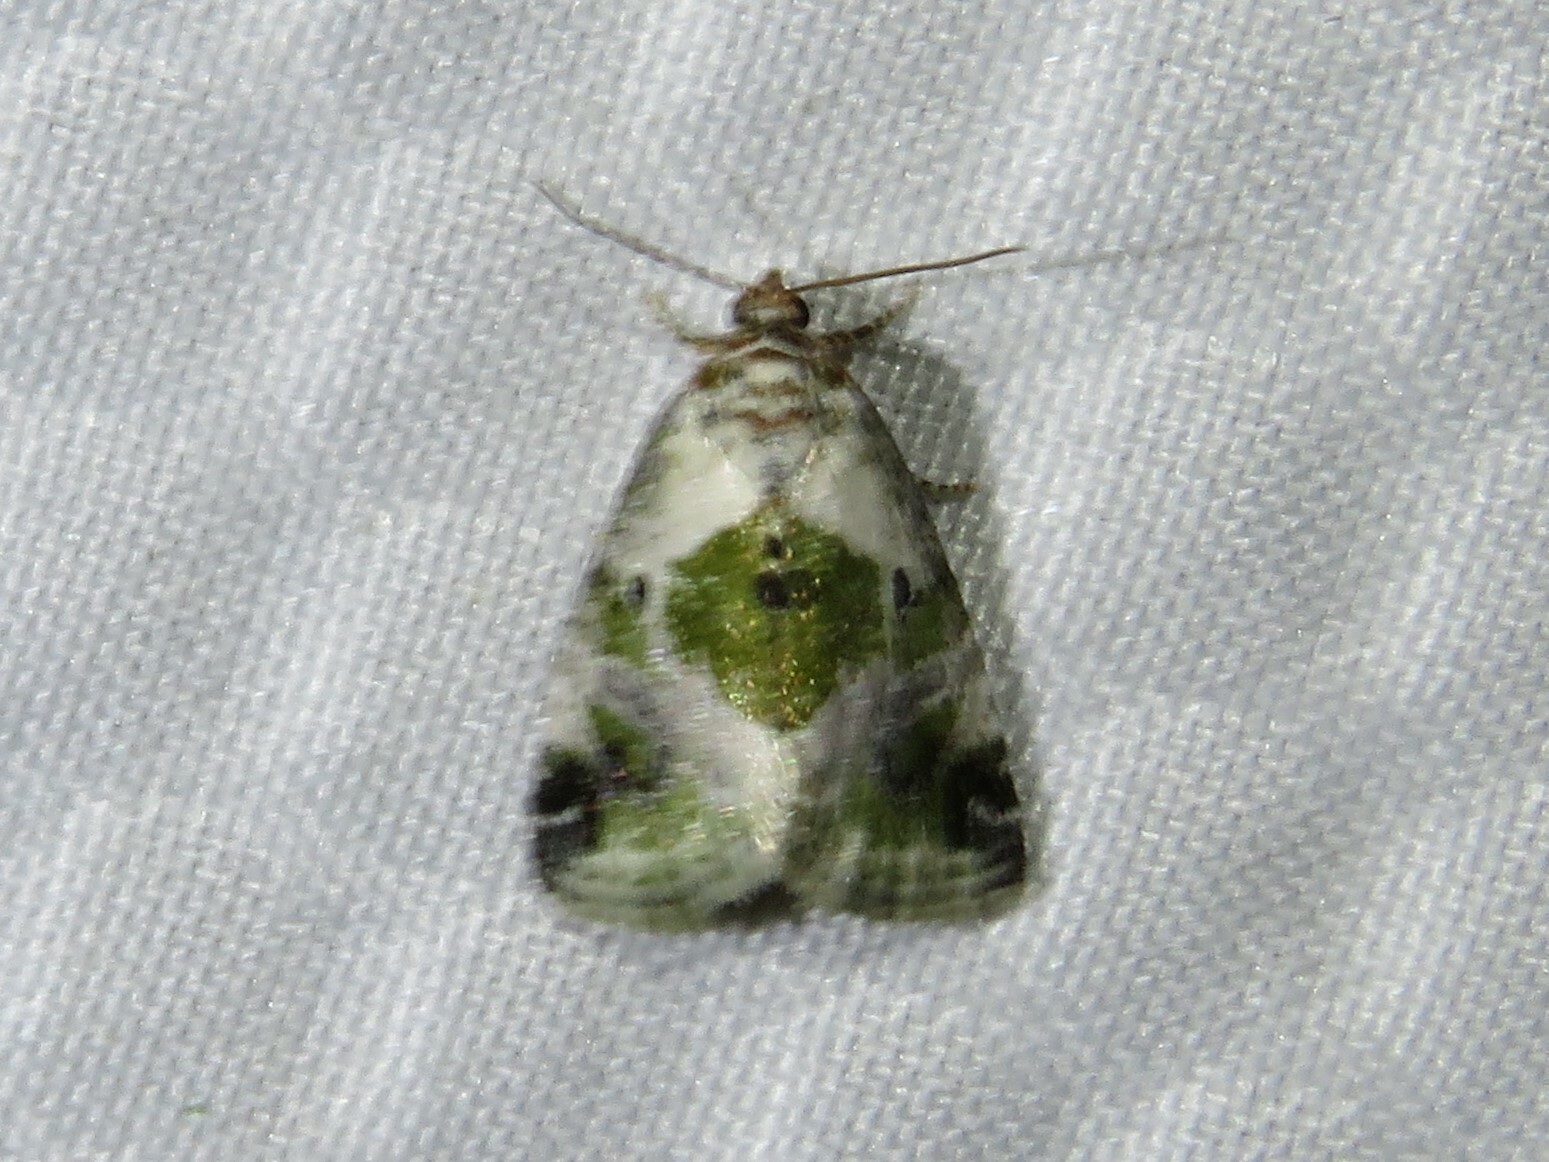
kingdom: Animalia
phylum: Arthropoda
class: Insecta
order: Lepidoptera
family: Noctuidae
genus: Maliattha
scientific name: Maliattha synochitis
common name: Black-dotted glyph
